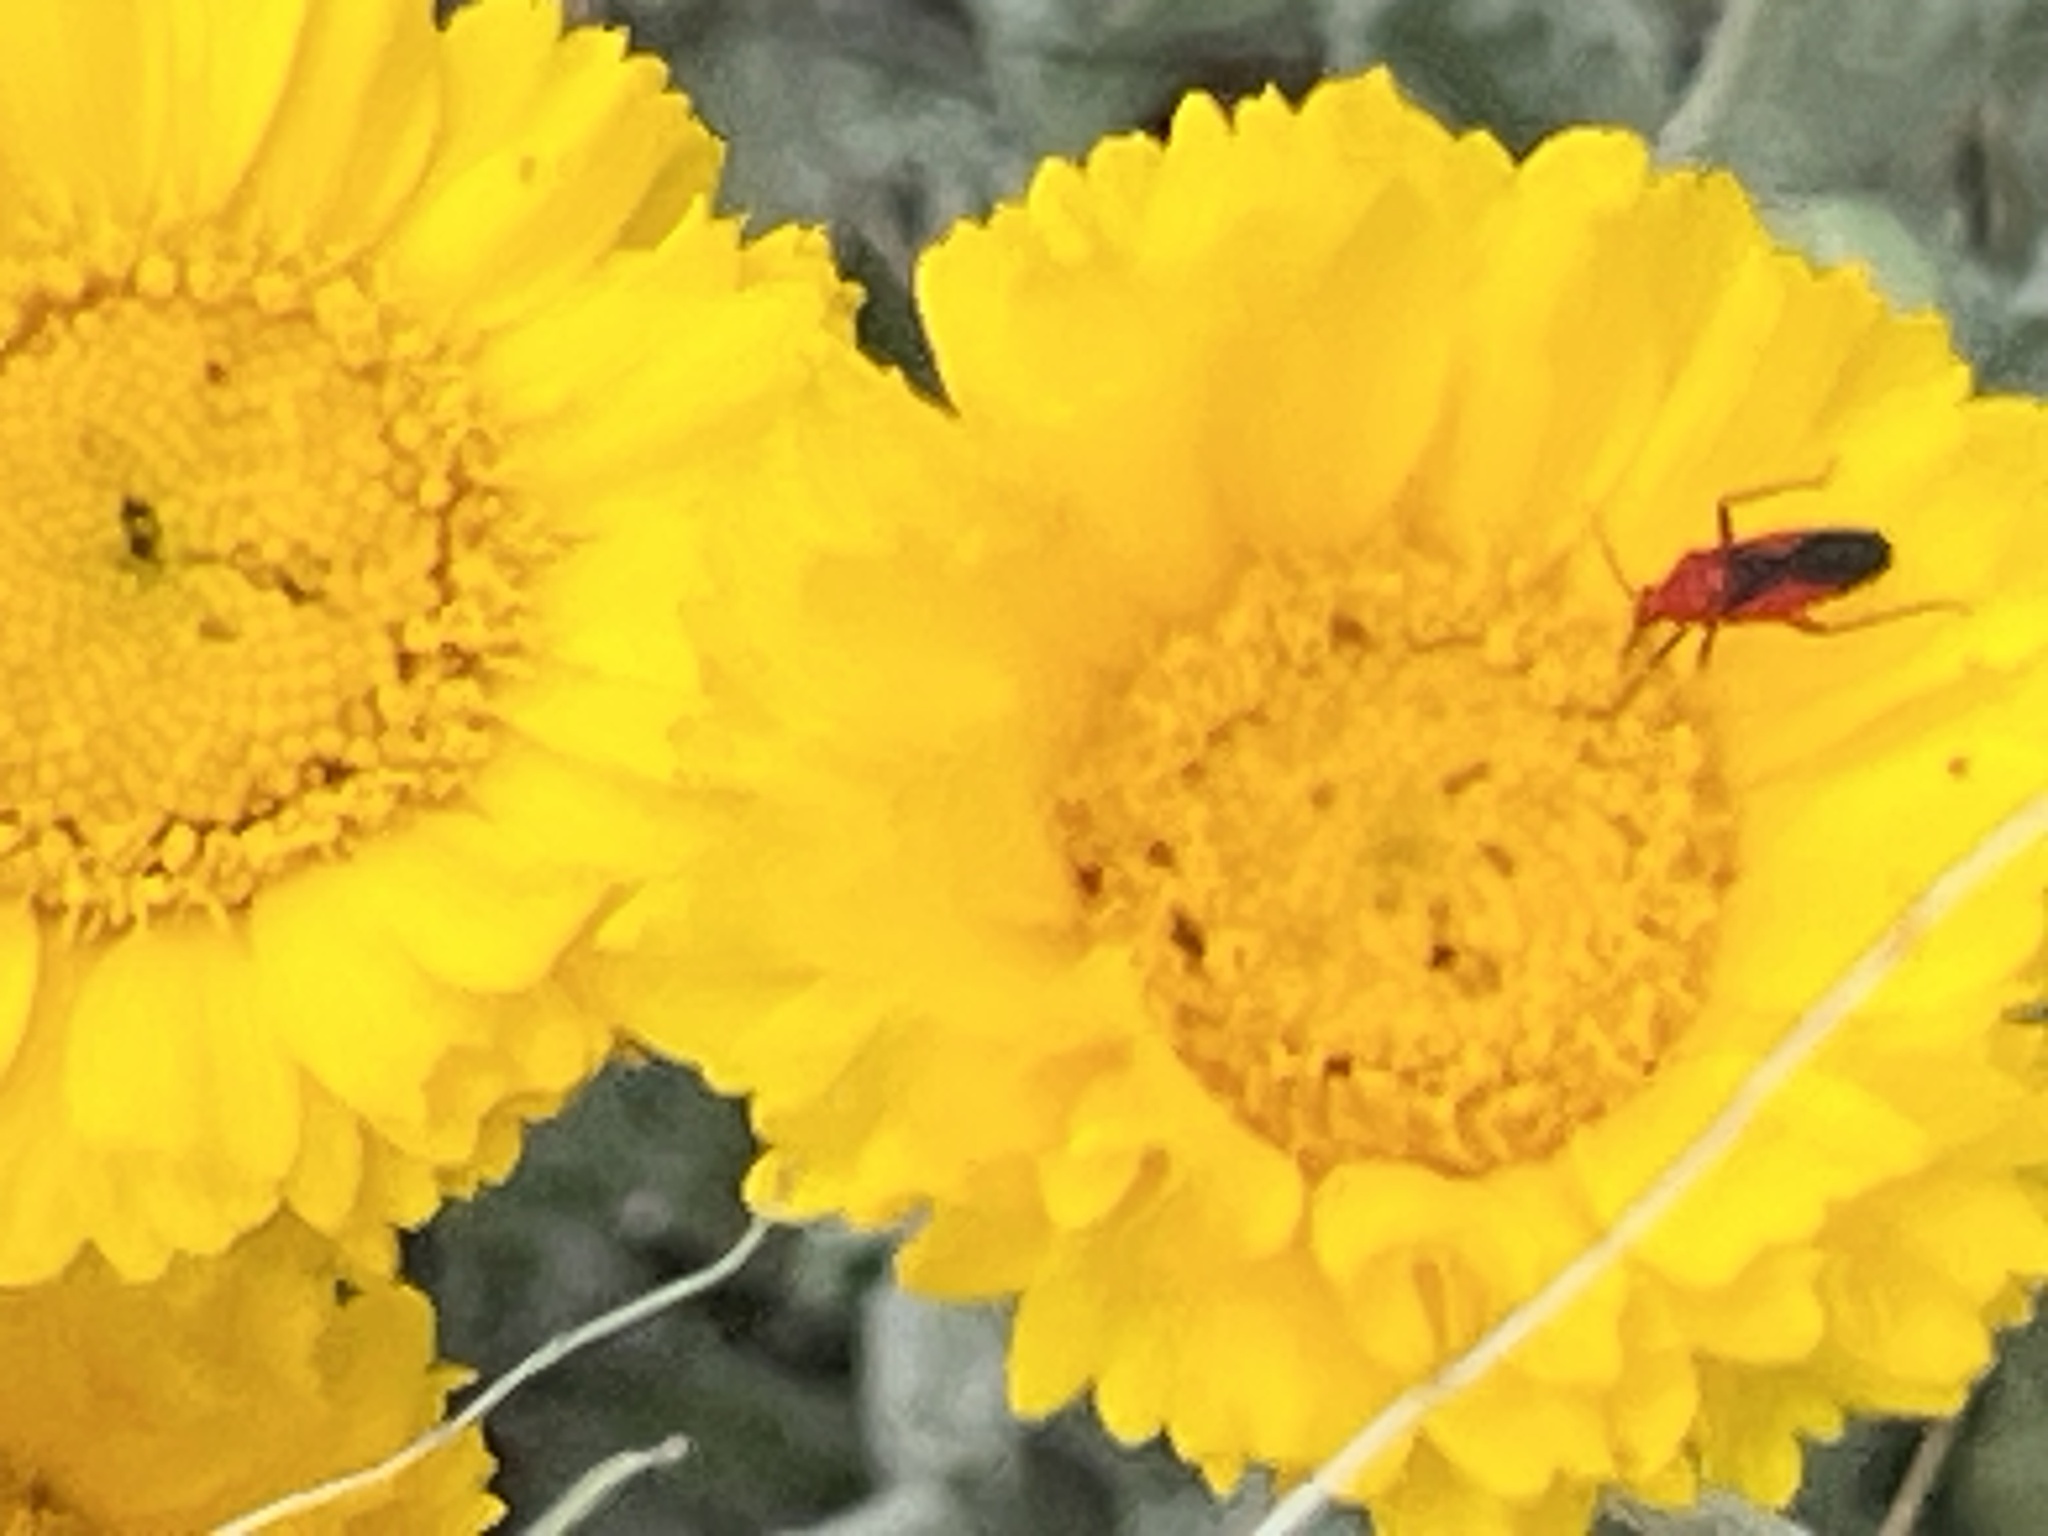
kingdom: Animalia
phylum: Arthropoda
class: Insecta
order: Hemiptera
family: Miridae
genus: Oncerometopus
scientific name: Oncerometopus nigriclavus
